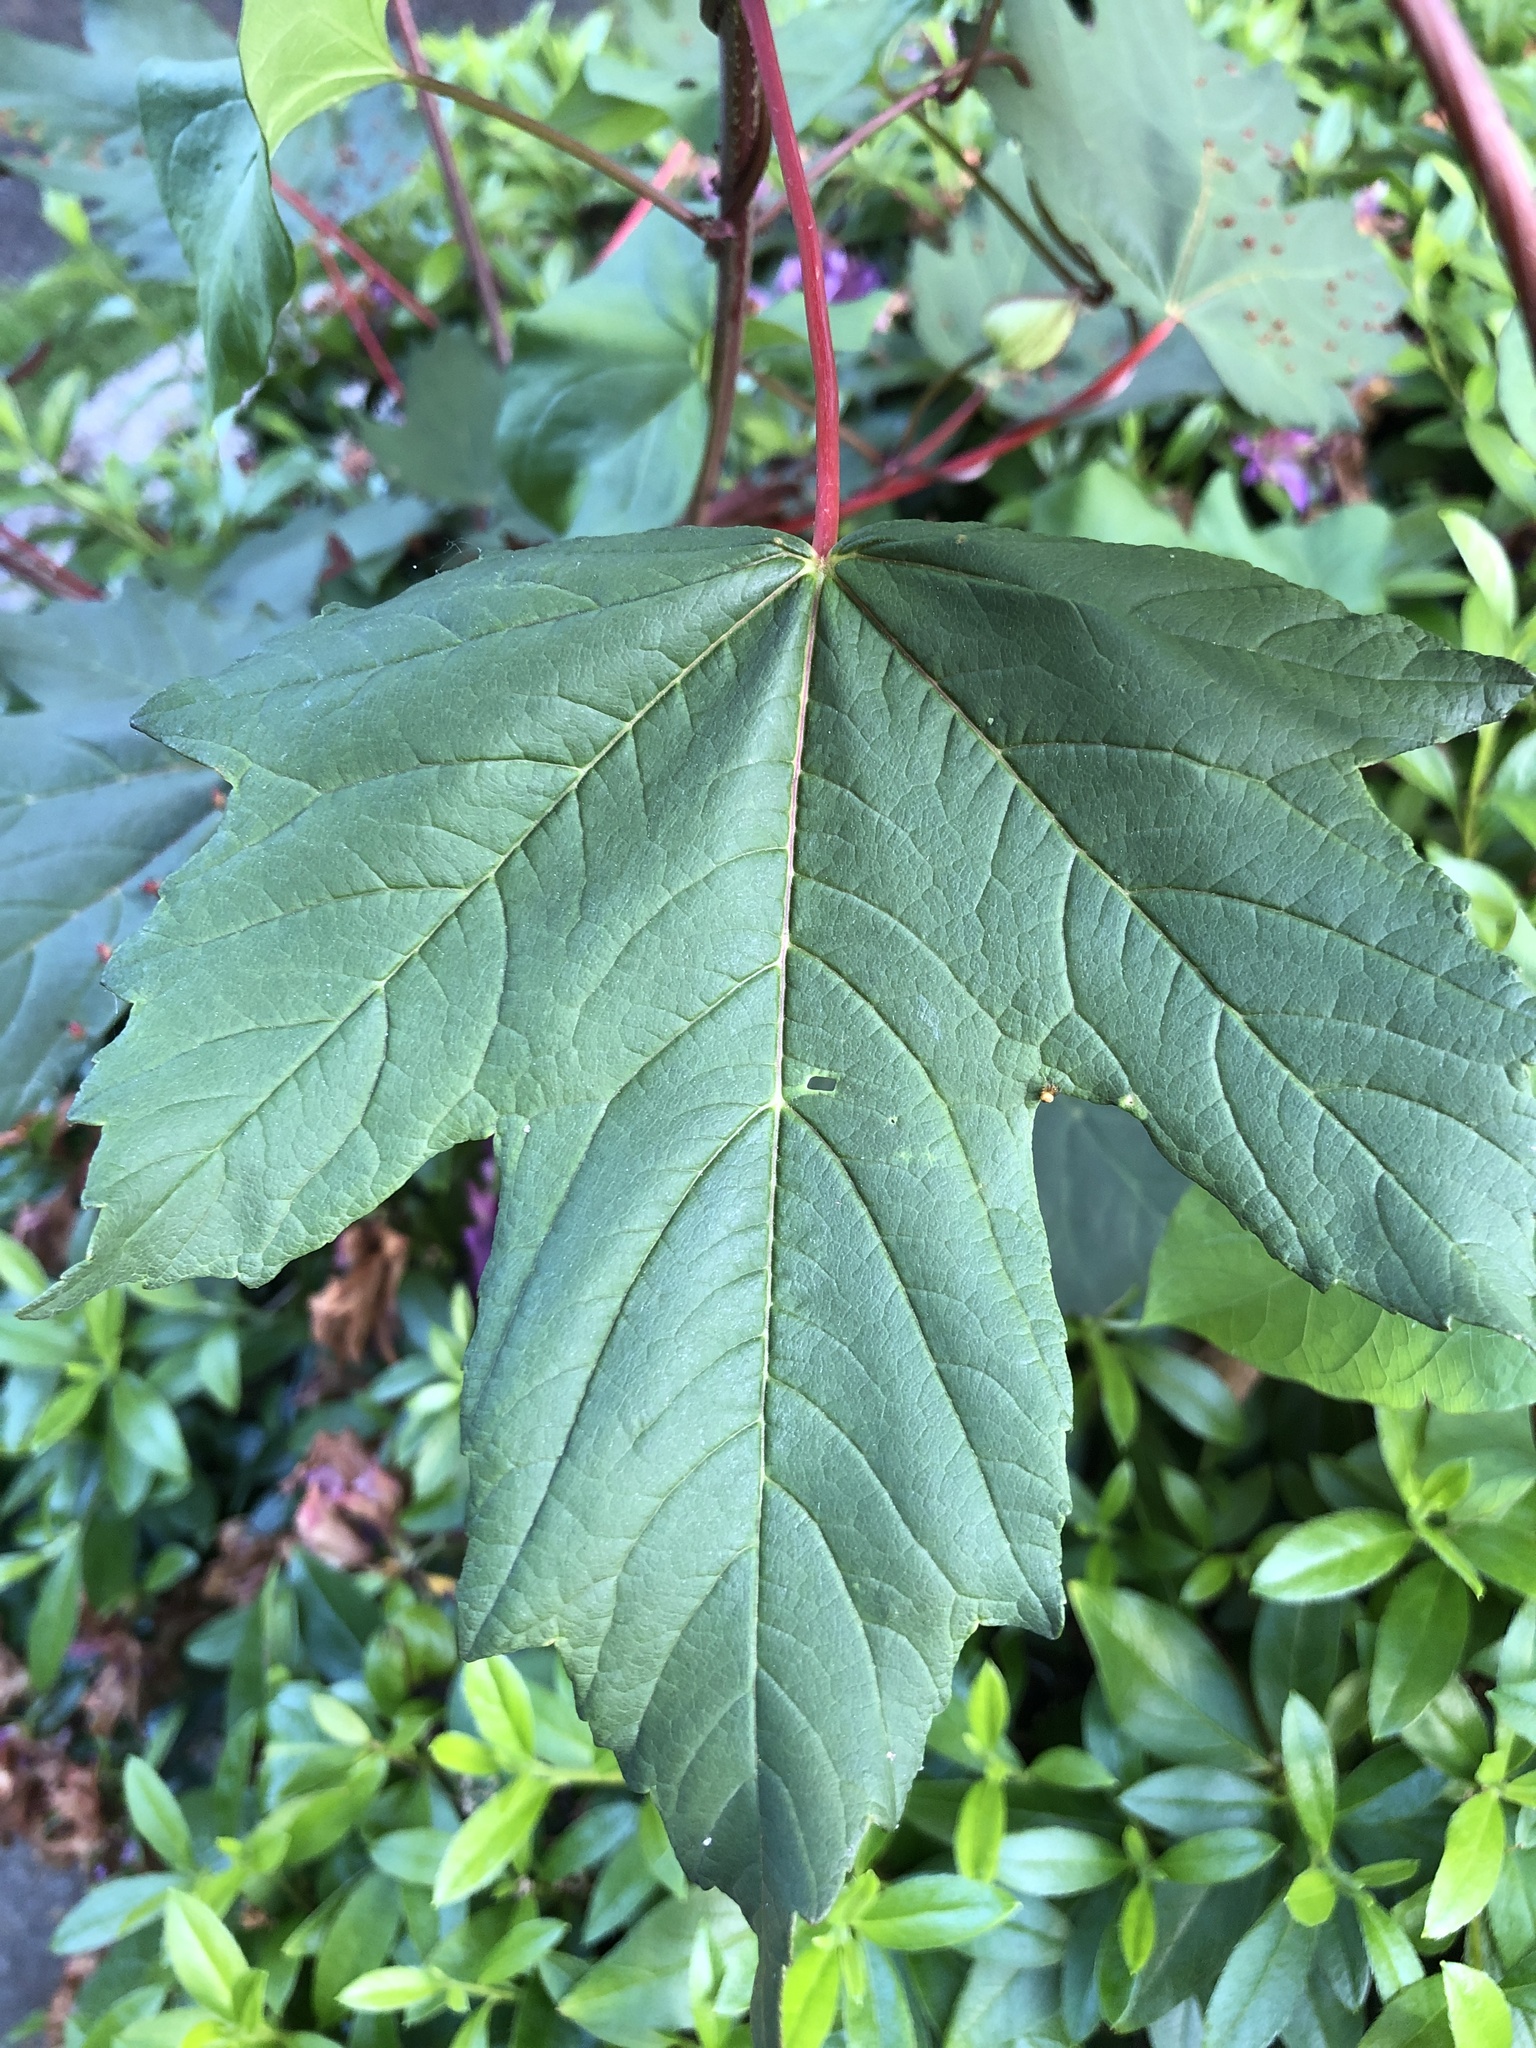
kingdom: Plantae
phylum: Tracheophyta
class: Magnoliopsida
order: Sapindales
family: Sapindaceae
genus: Acer
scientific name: Acer pseudoplatanus
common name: Sycamore
